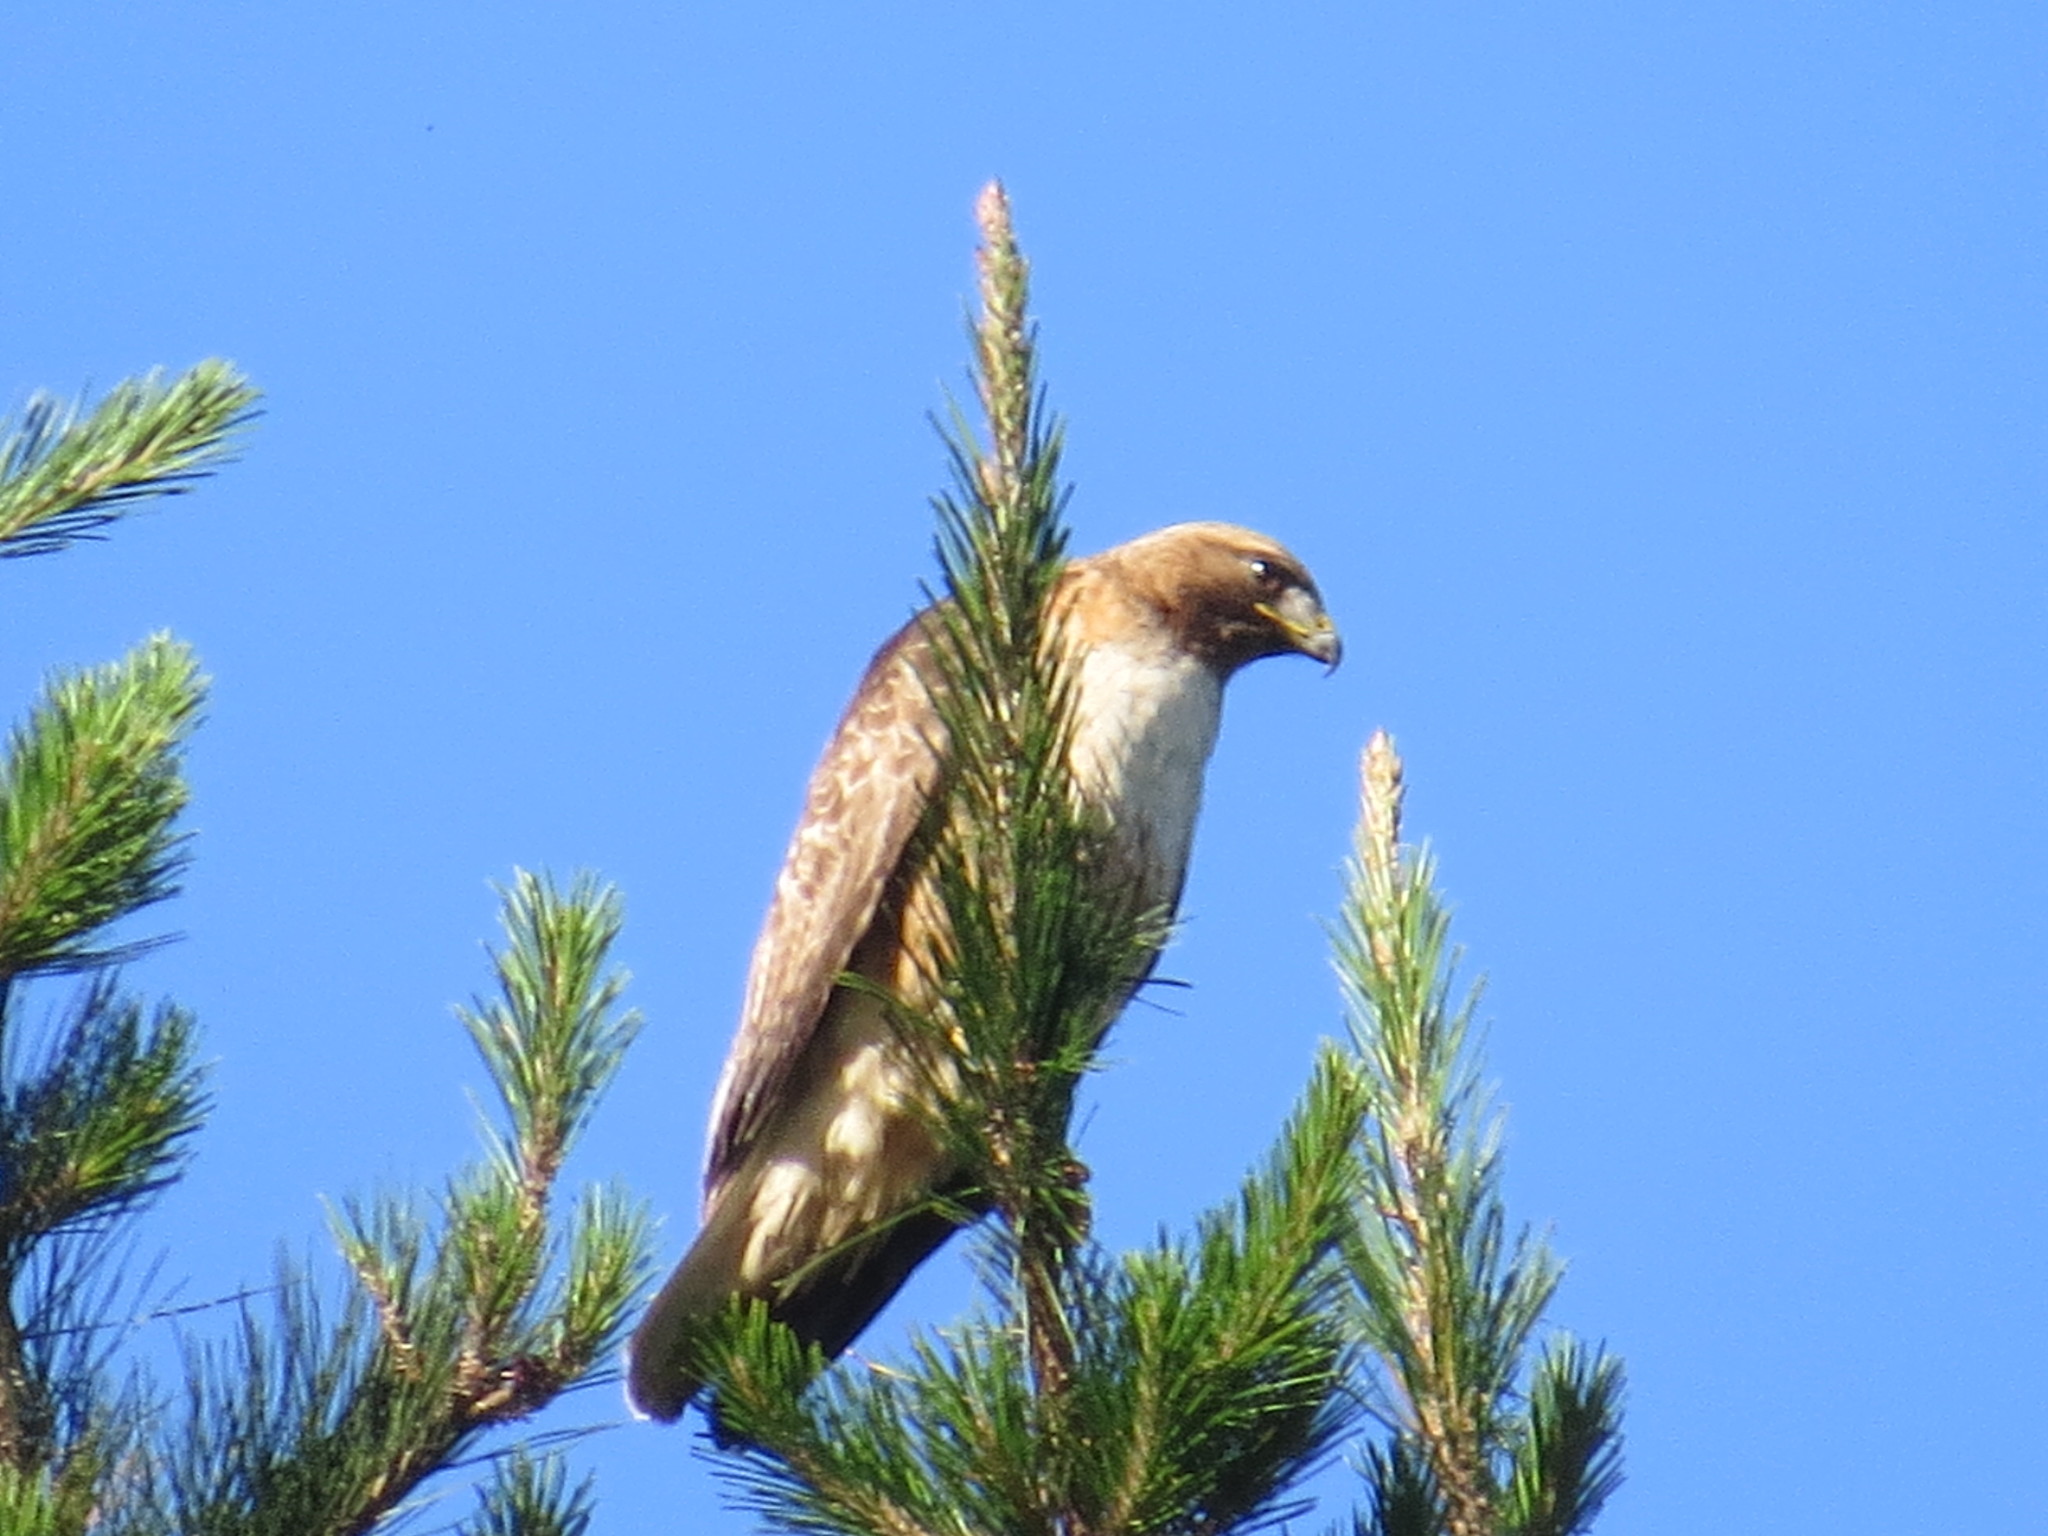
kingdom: Animalia
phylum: Chordata
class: Aves
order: Accipitriformes
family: Accipitridae
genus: Buteo
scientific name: Buteo jamaicensis
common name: Red-tailed hawk
